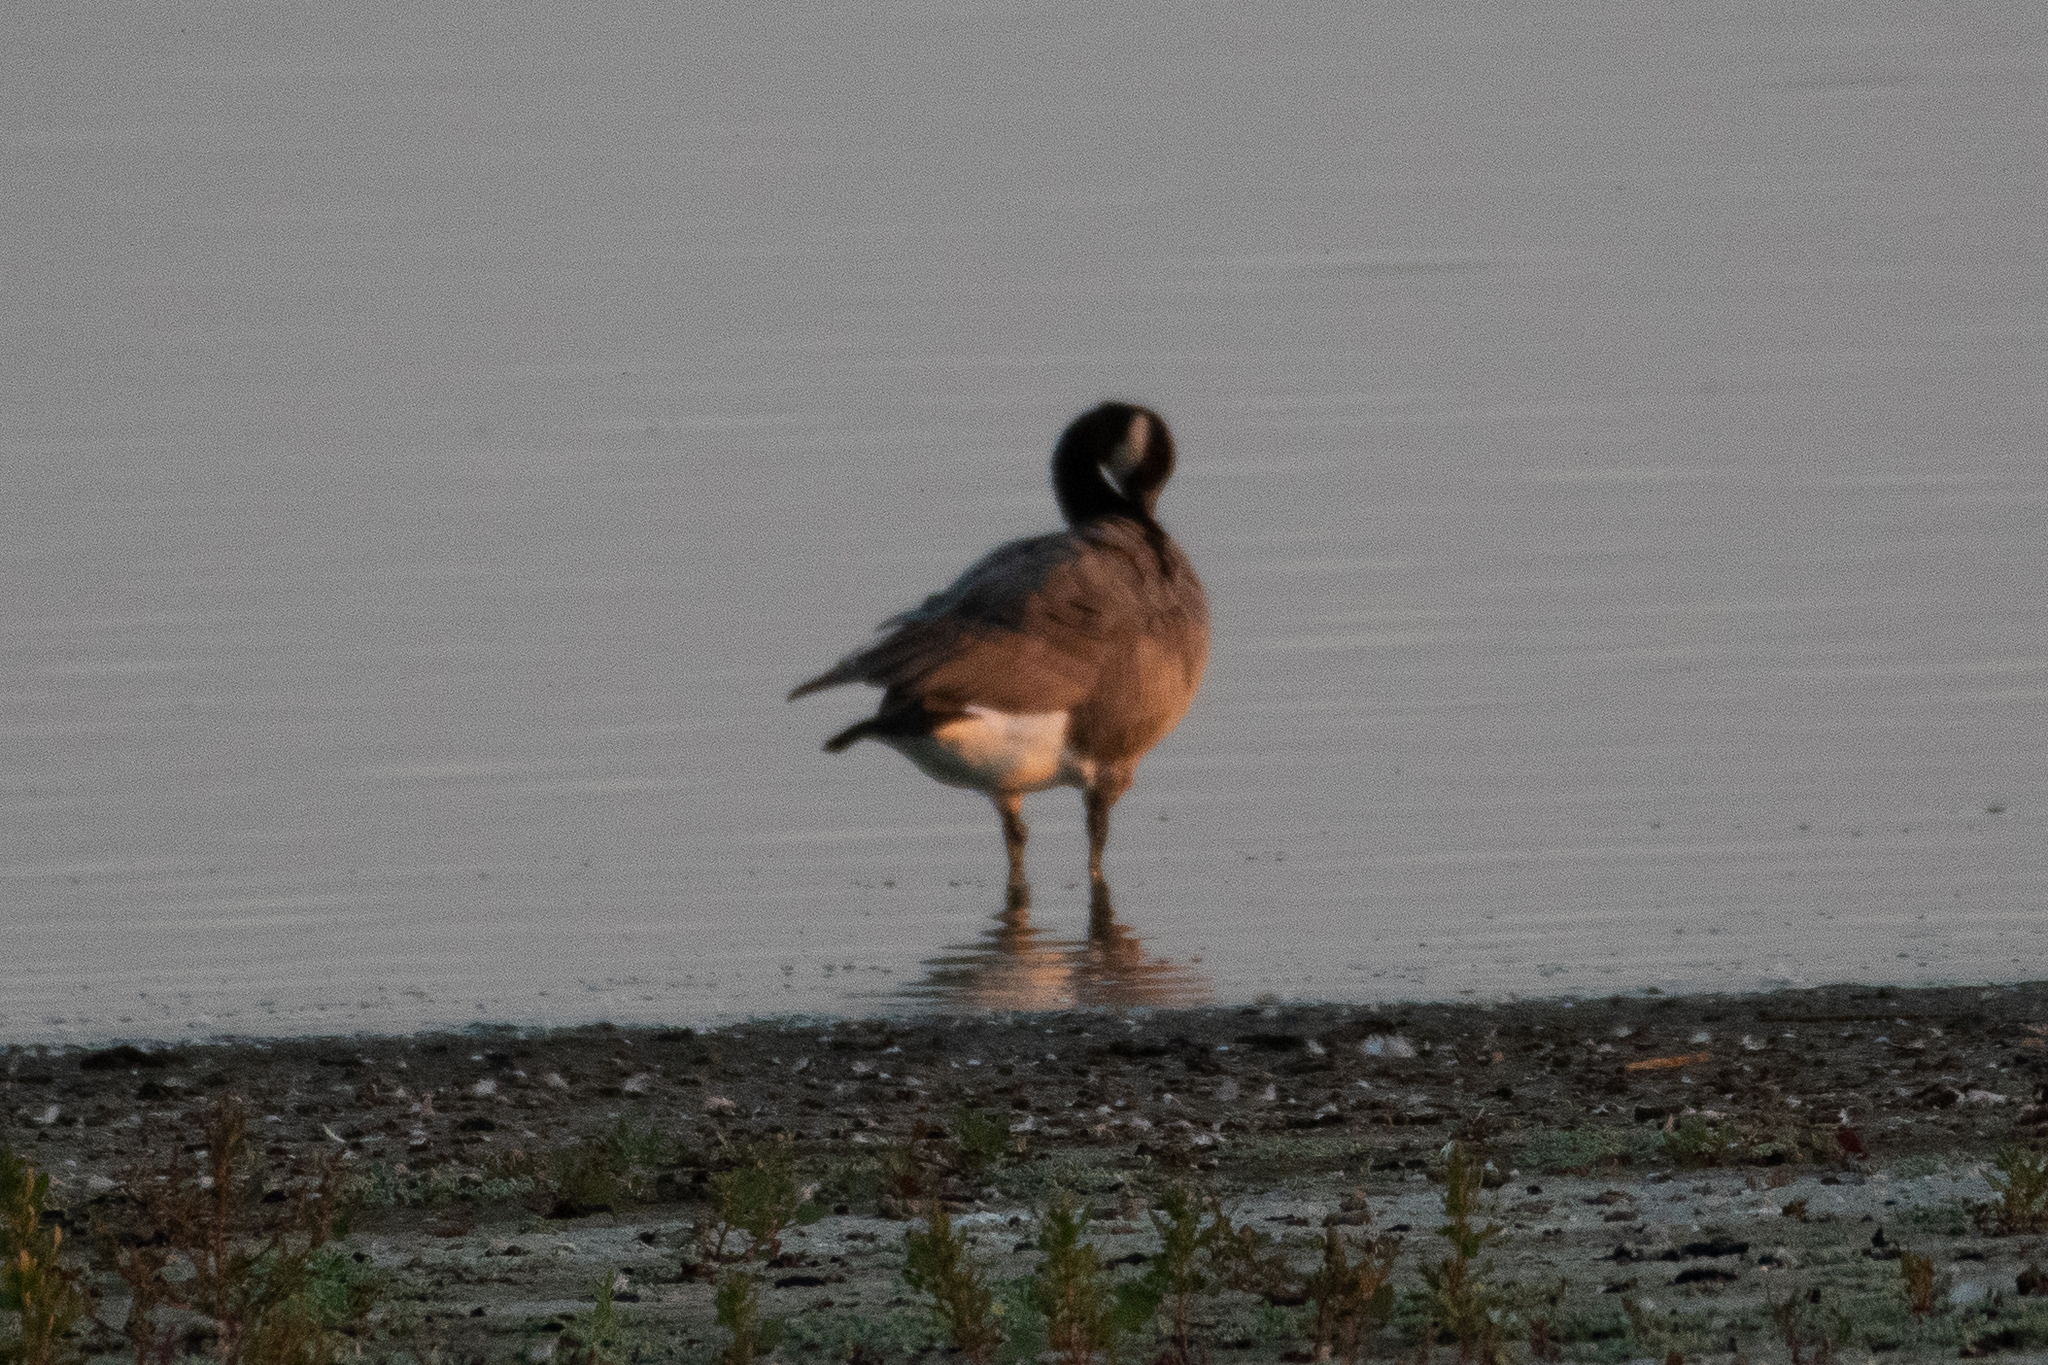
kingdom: Animalia
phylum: Chordata
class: Aves
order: Anseriformes
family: Anatidae
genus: Branta
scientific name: Branta canadensis
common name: Canada goose
